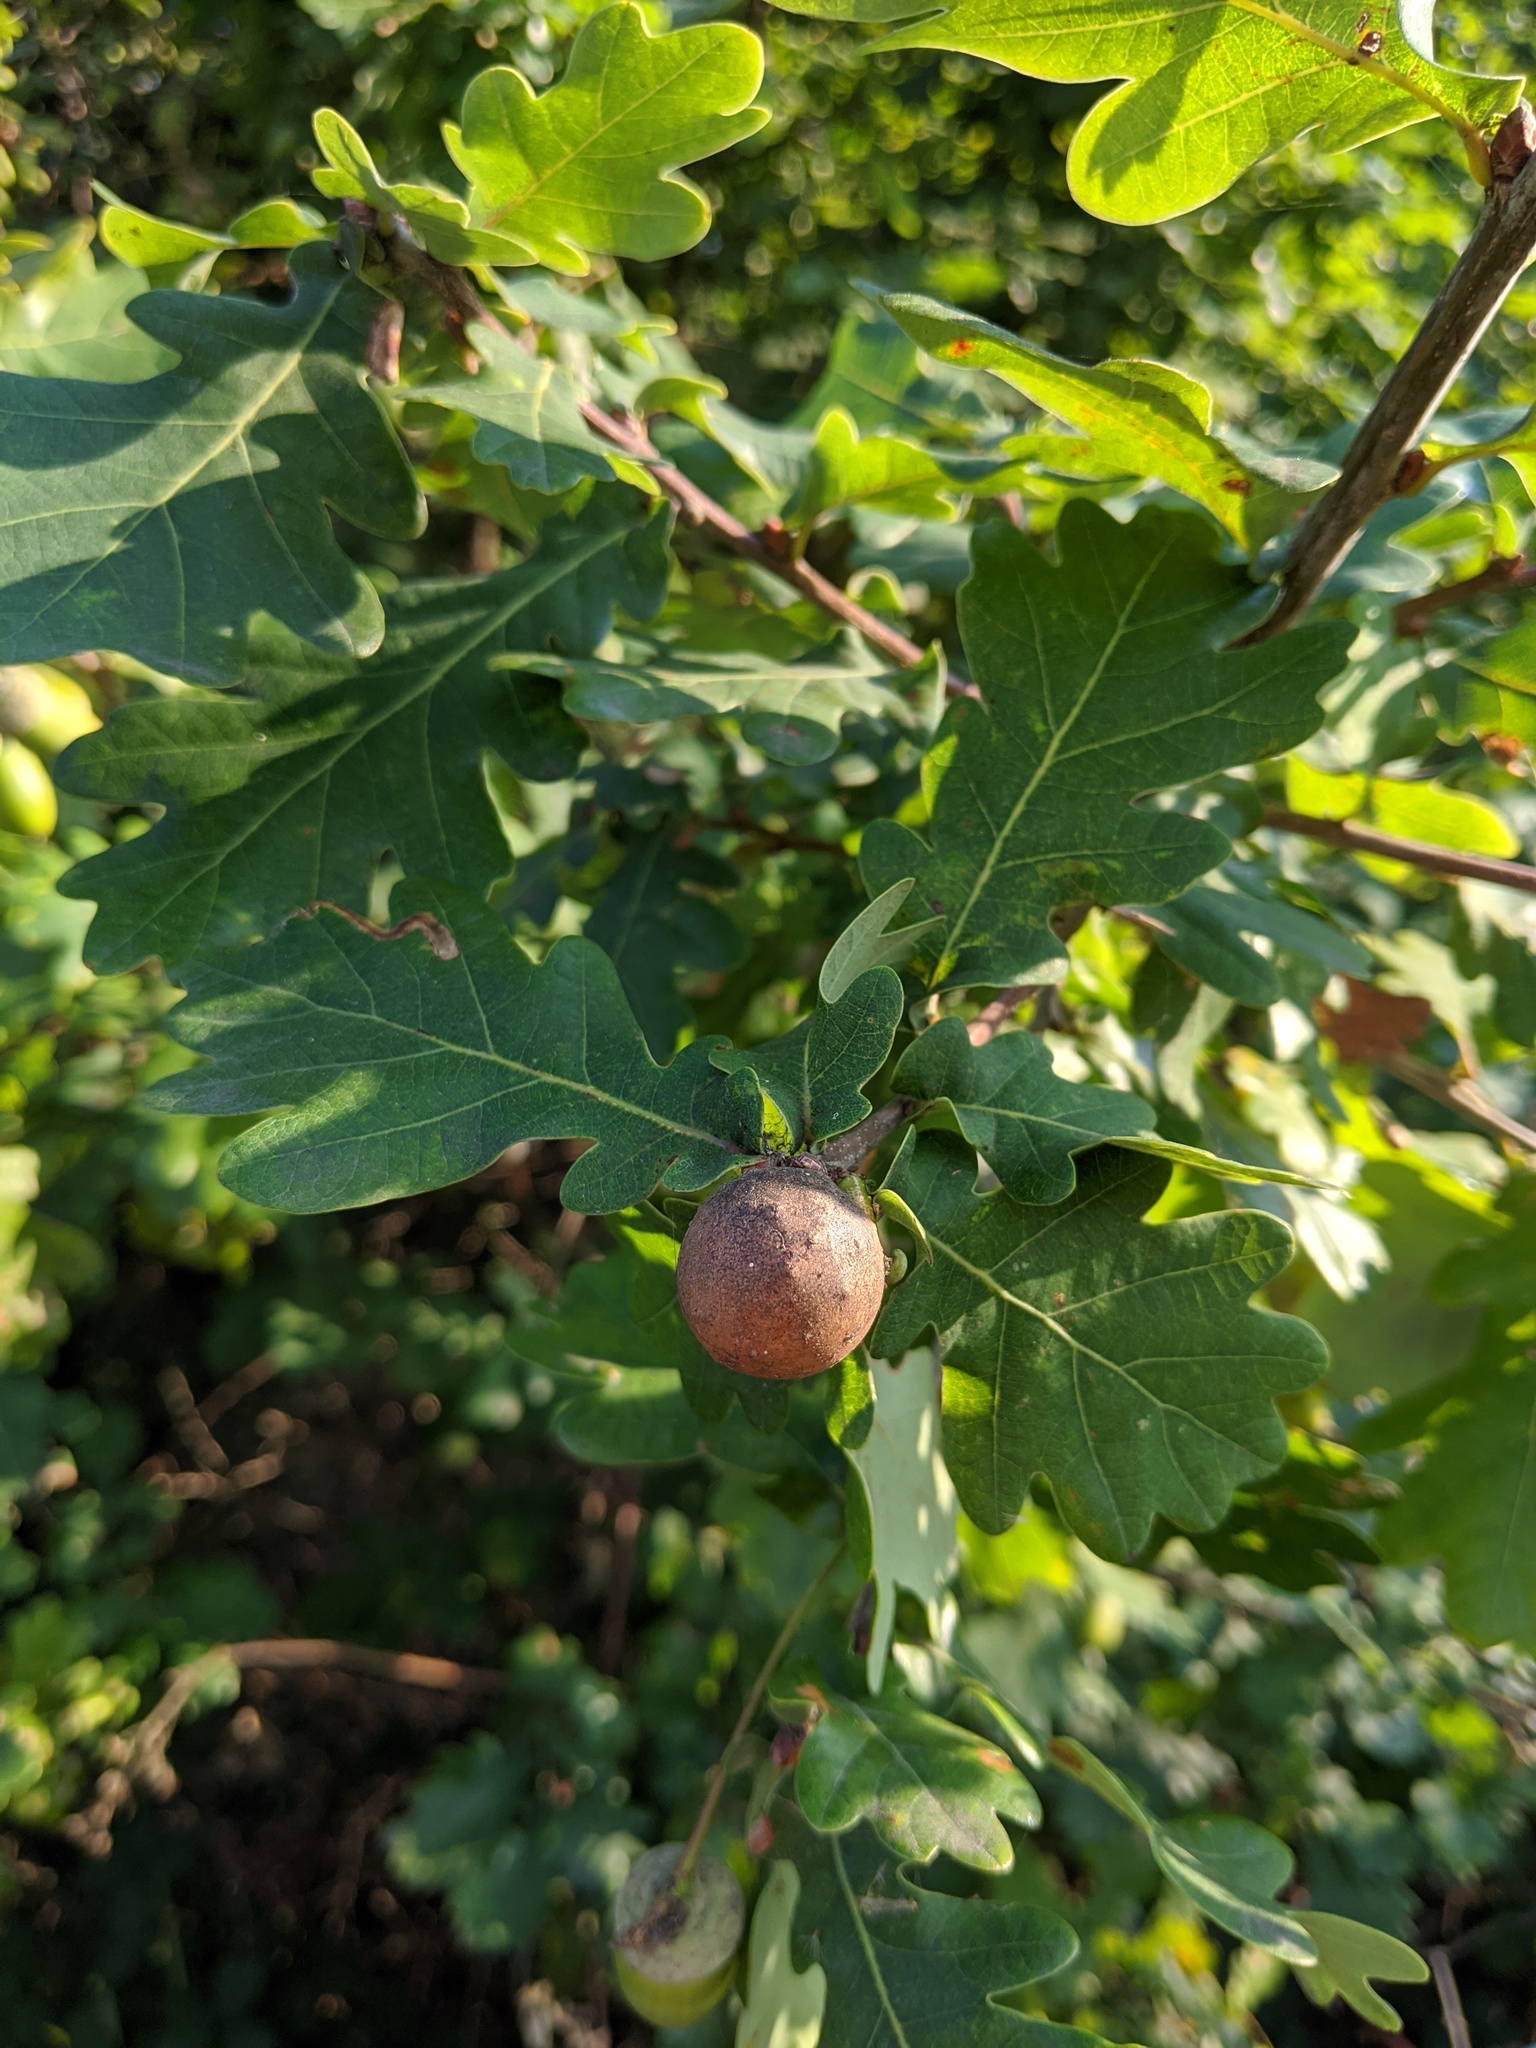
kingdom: Animalia
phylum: Arthropoda
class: Insecta
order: Hymenoptera
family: Cynipidae
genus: Andricus
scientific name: Andricus kollari
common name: Marble gall
